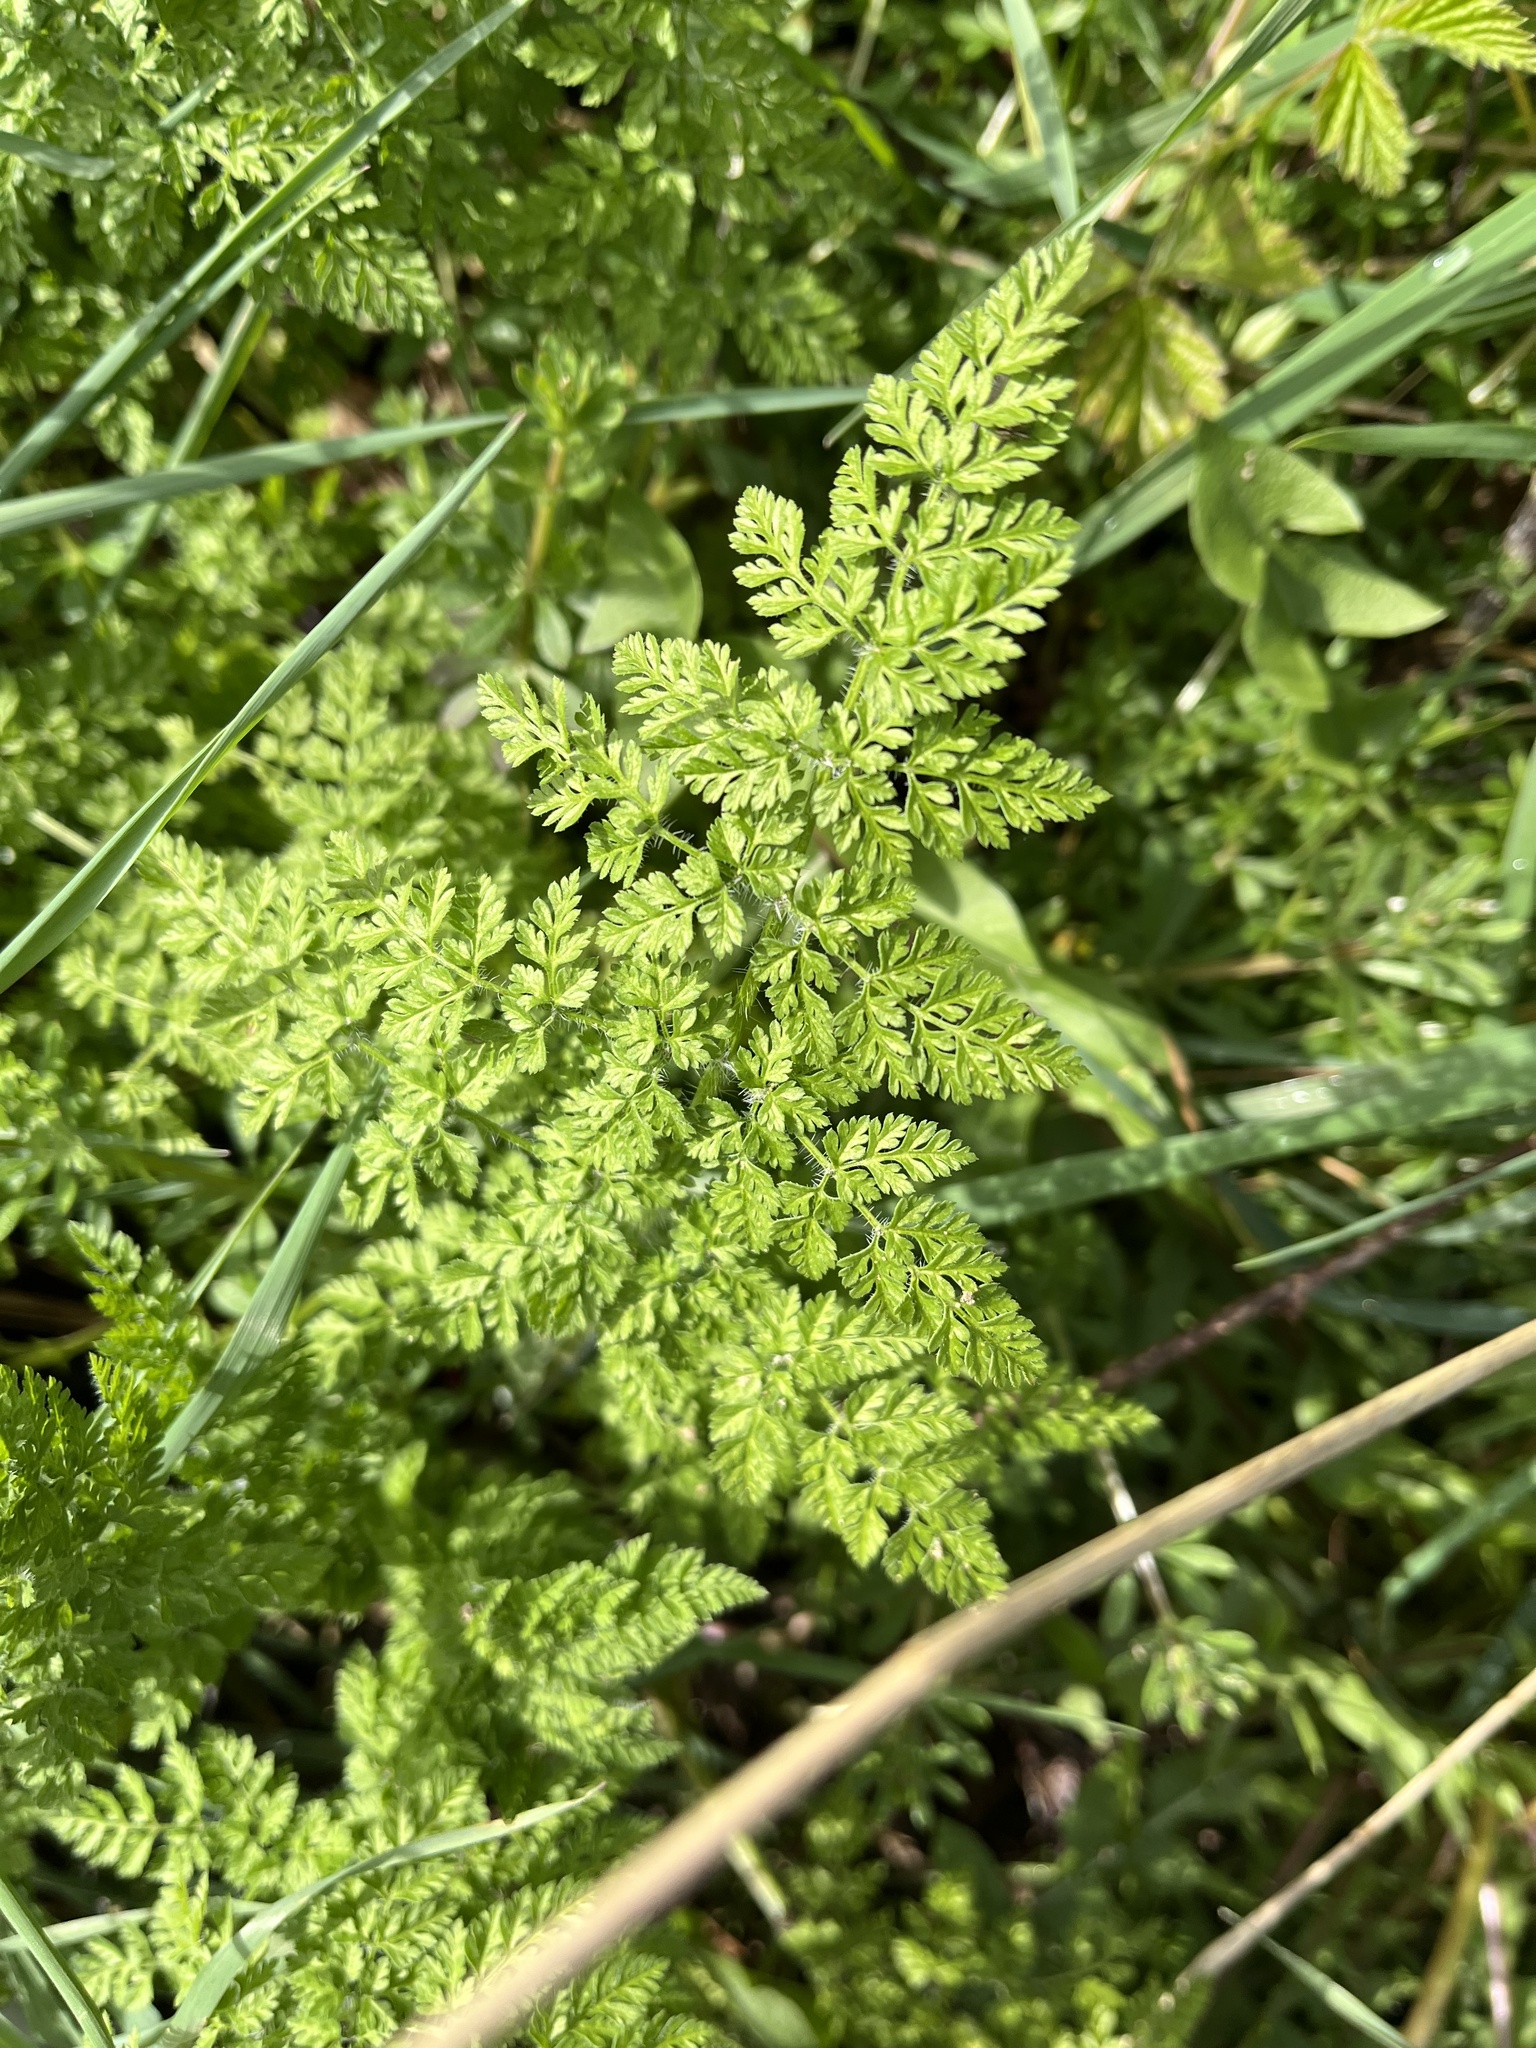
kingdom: Plantae
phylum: Tracheophyta
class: Magnoliopsida
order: Apiales
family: Apiaceae
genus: Anthriscus
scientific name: Anthriscus caucalis
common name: Bur chervil
